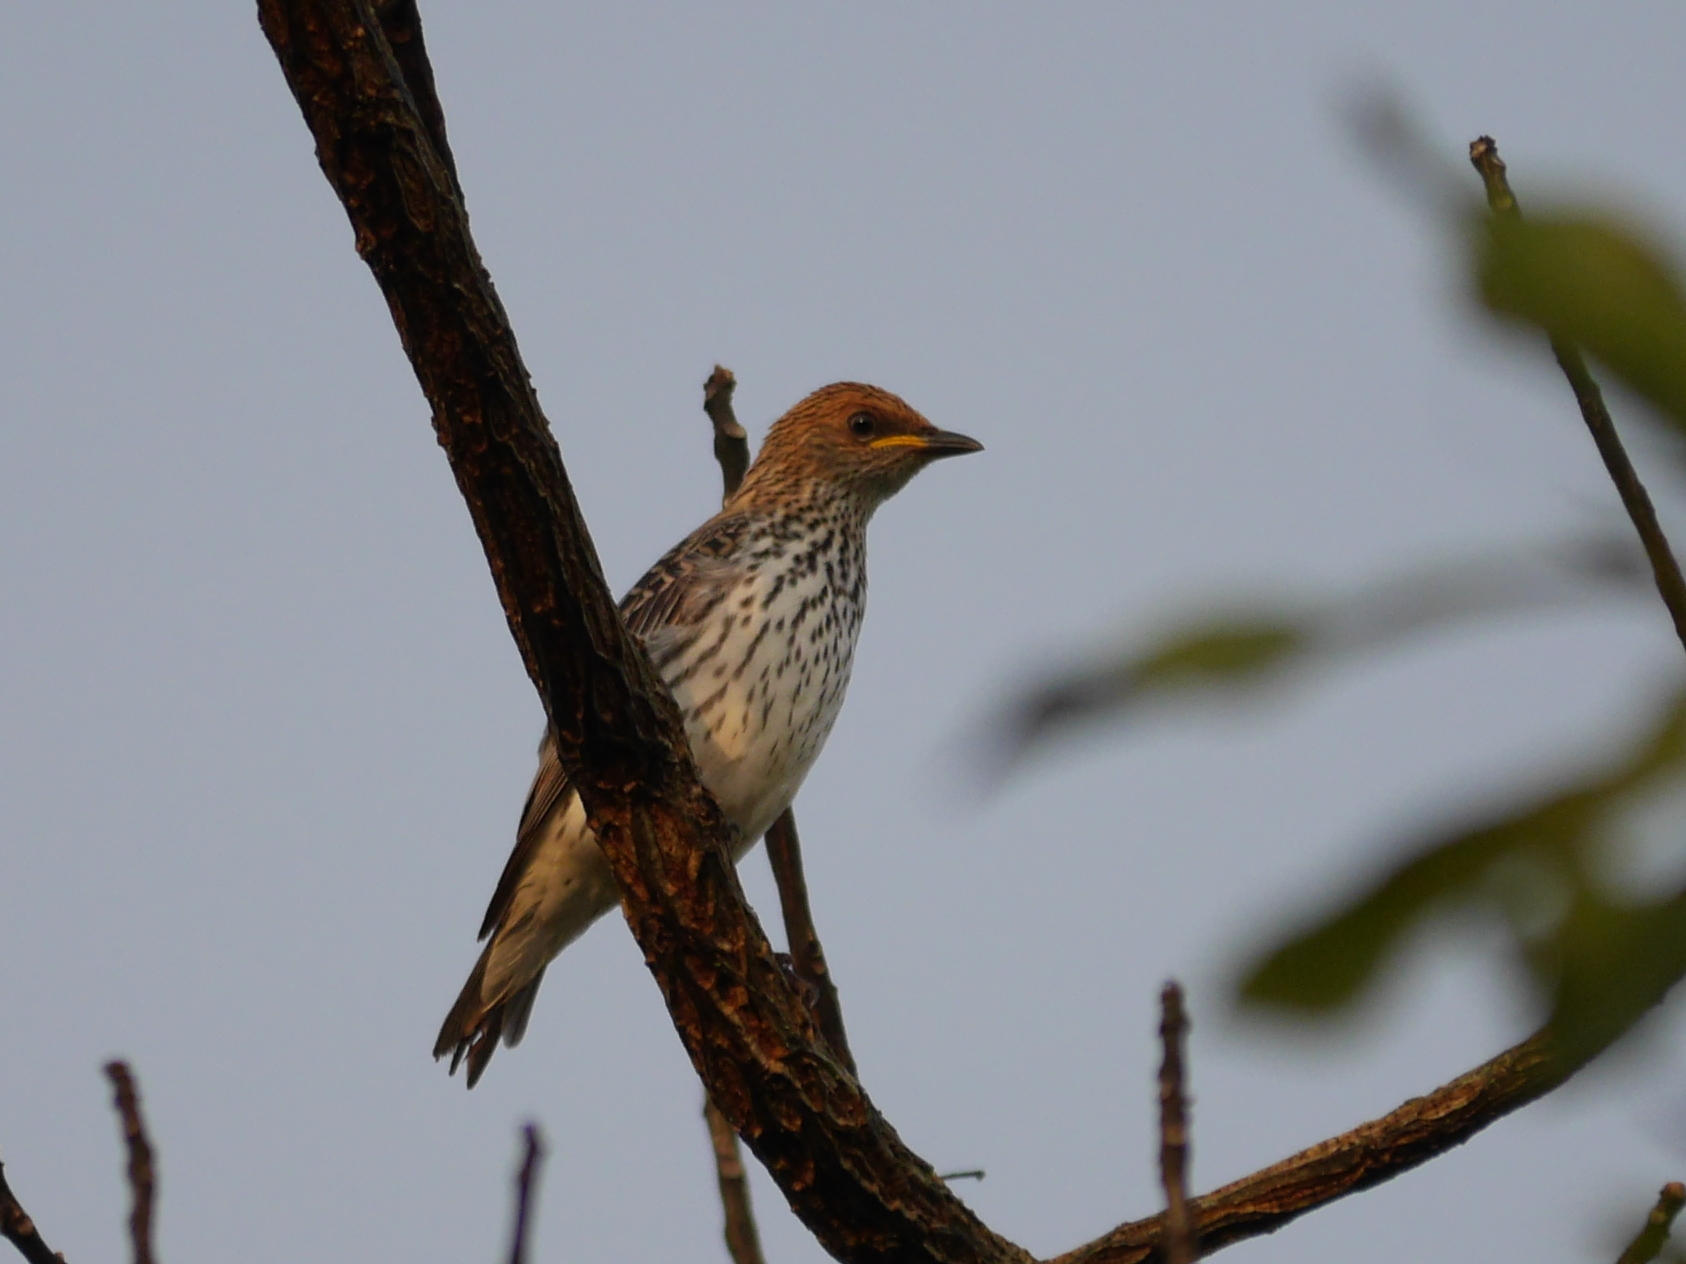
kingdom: Animalia
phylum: Chordata
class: Aves
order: Passeriformes
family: Sturnidae
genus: Cinnyricinclus
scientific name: Cinnyricinclus leucogaster
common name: Violet-backed starling
